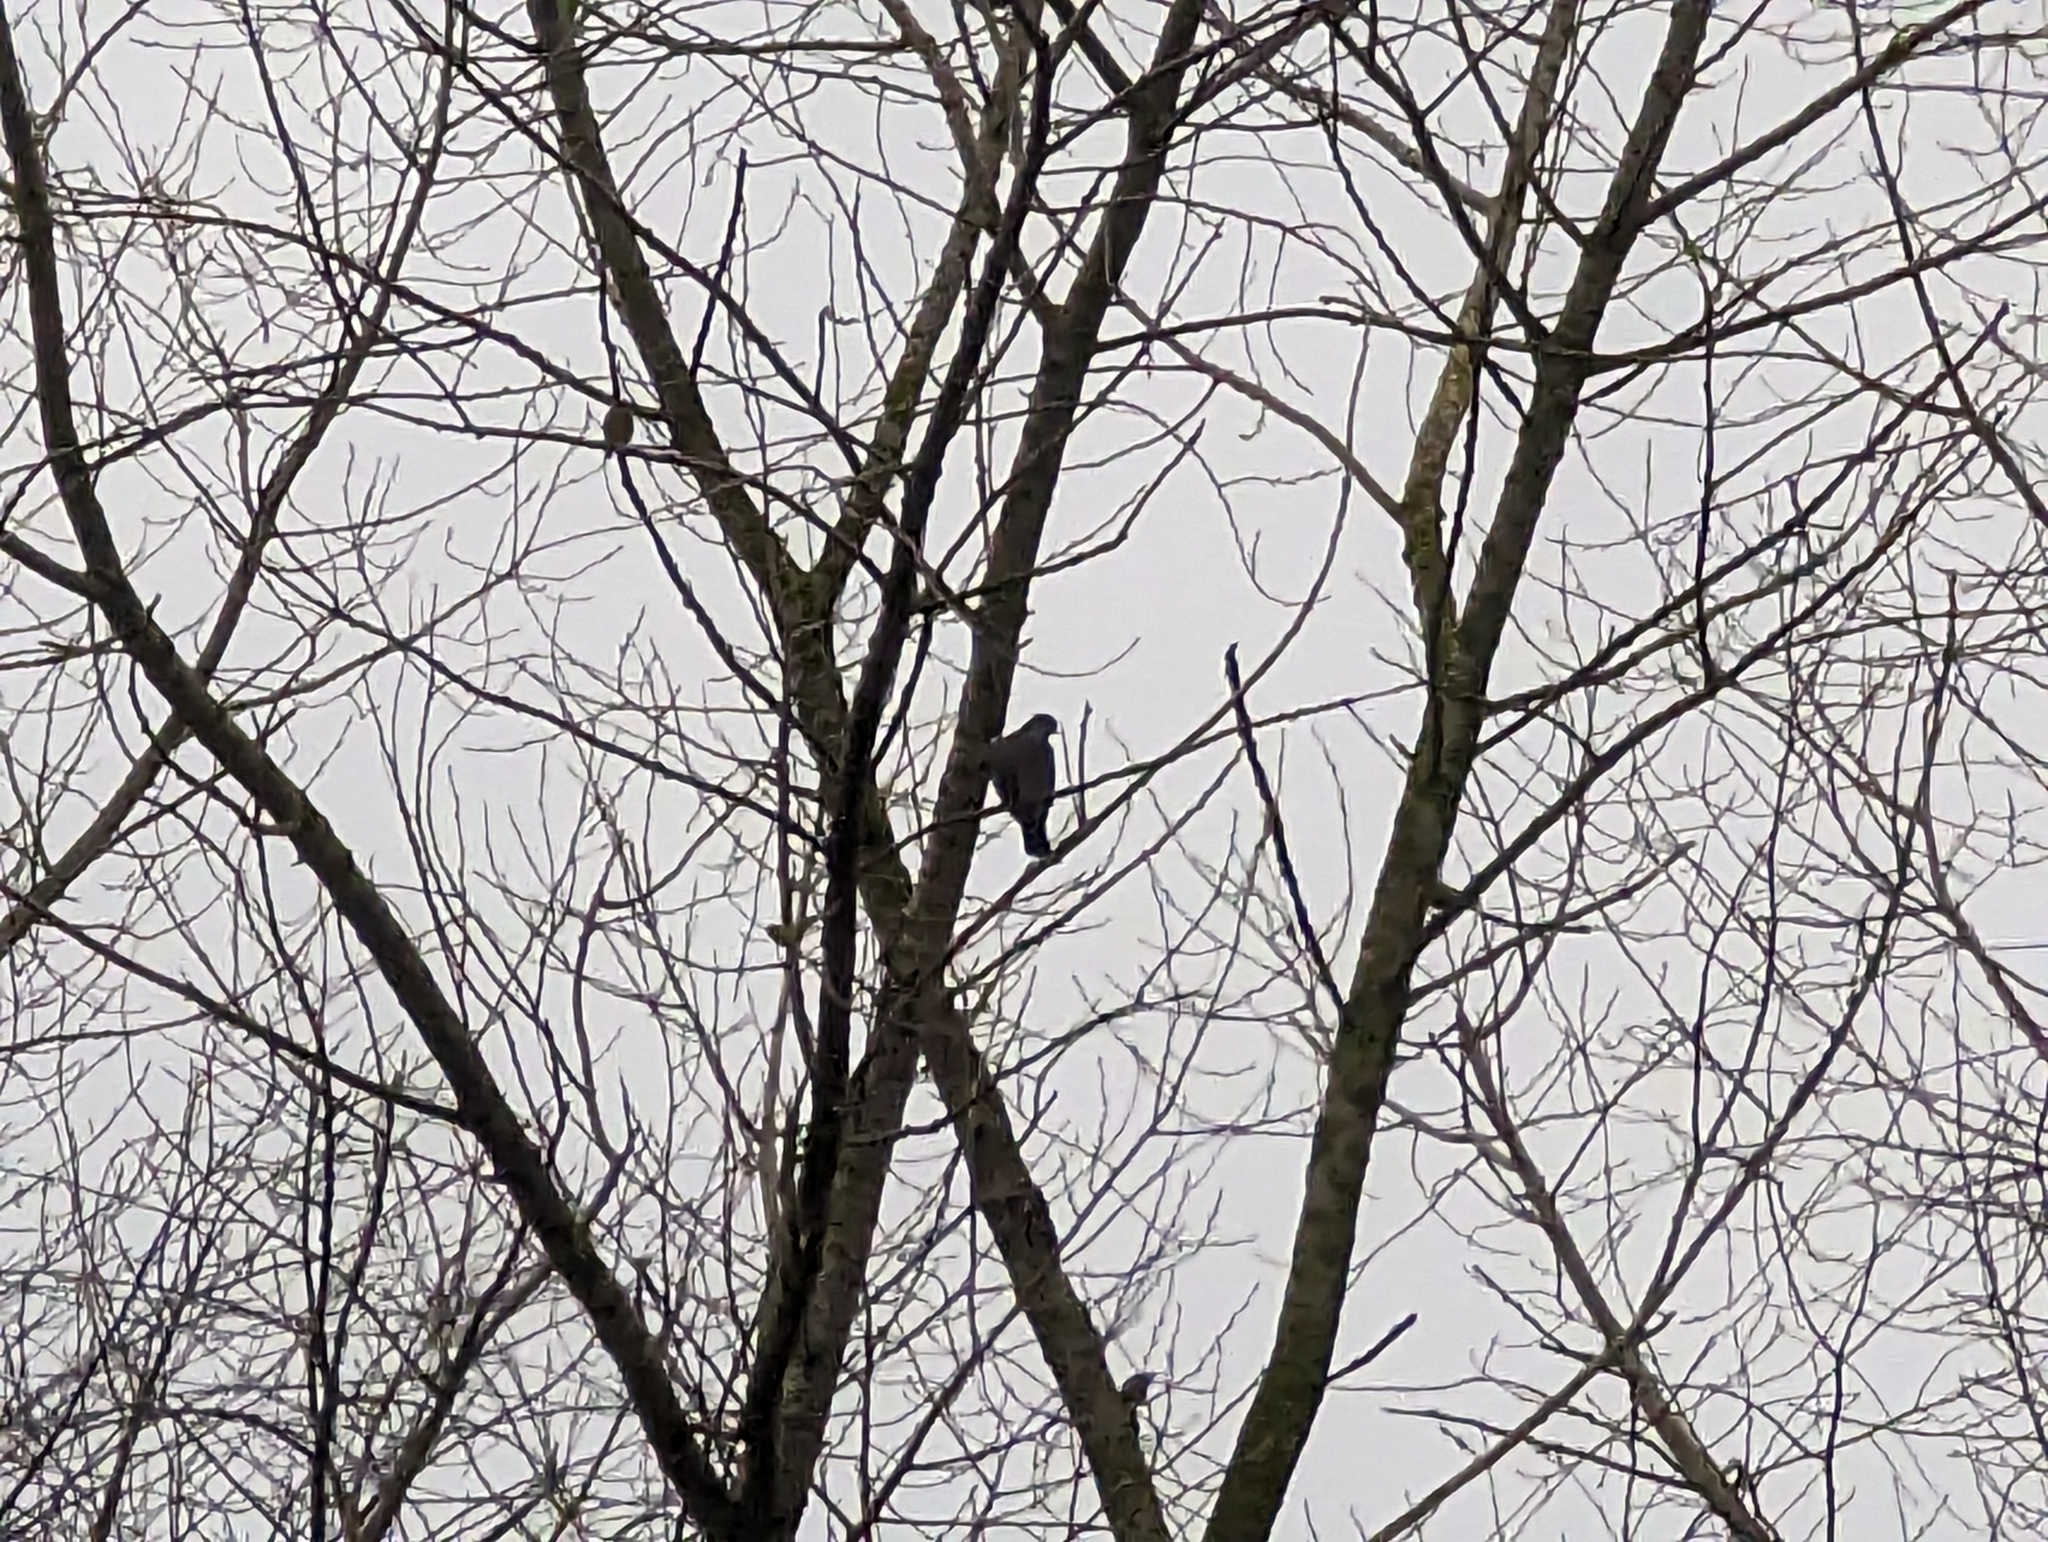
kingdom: Animalia
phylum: Chordata
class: Aves
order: Columbiformes
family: Columbidae
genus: Columba
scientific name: Columba oenas
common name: Stock dove
